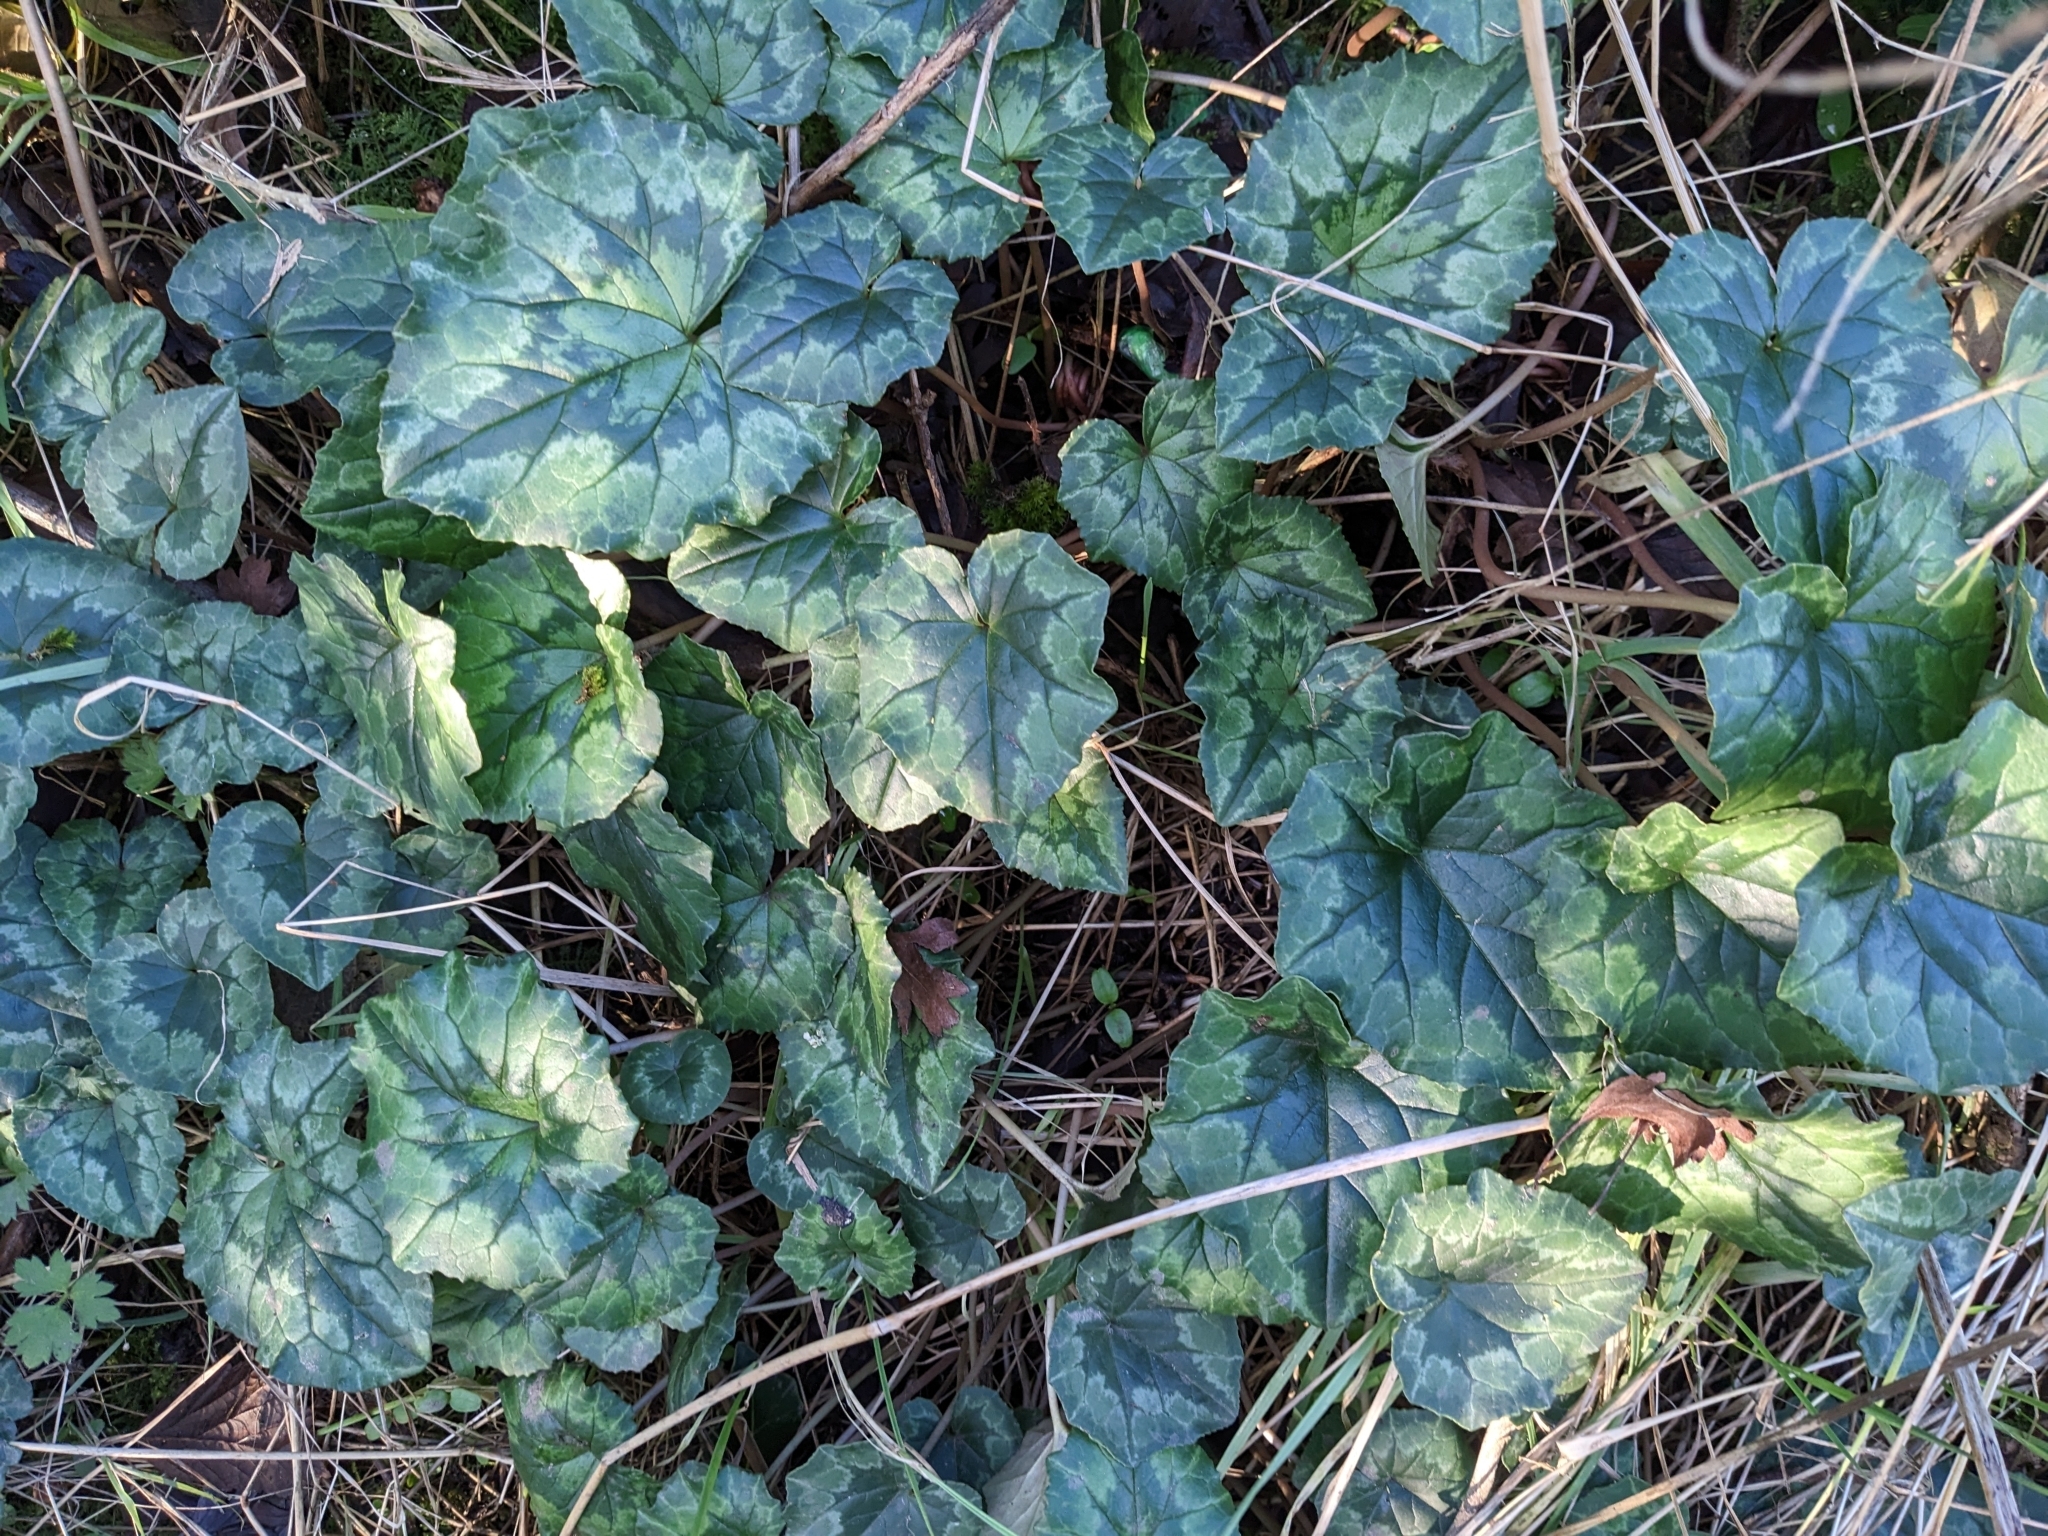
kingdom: Plantae
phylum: Tracheophyta
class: Magnoliopsida
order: Ericales
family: Primulaceae
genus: Cyclamen
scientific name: Cyclamen hederifolium
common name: Sowbread
